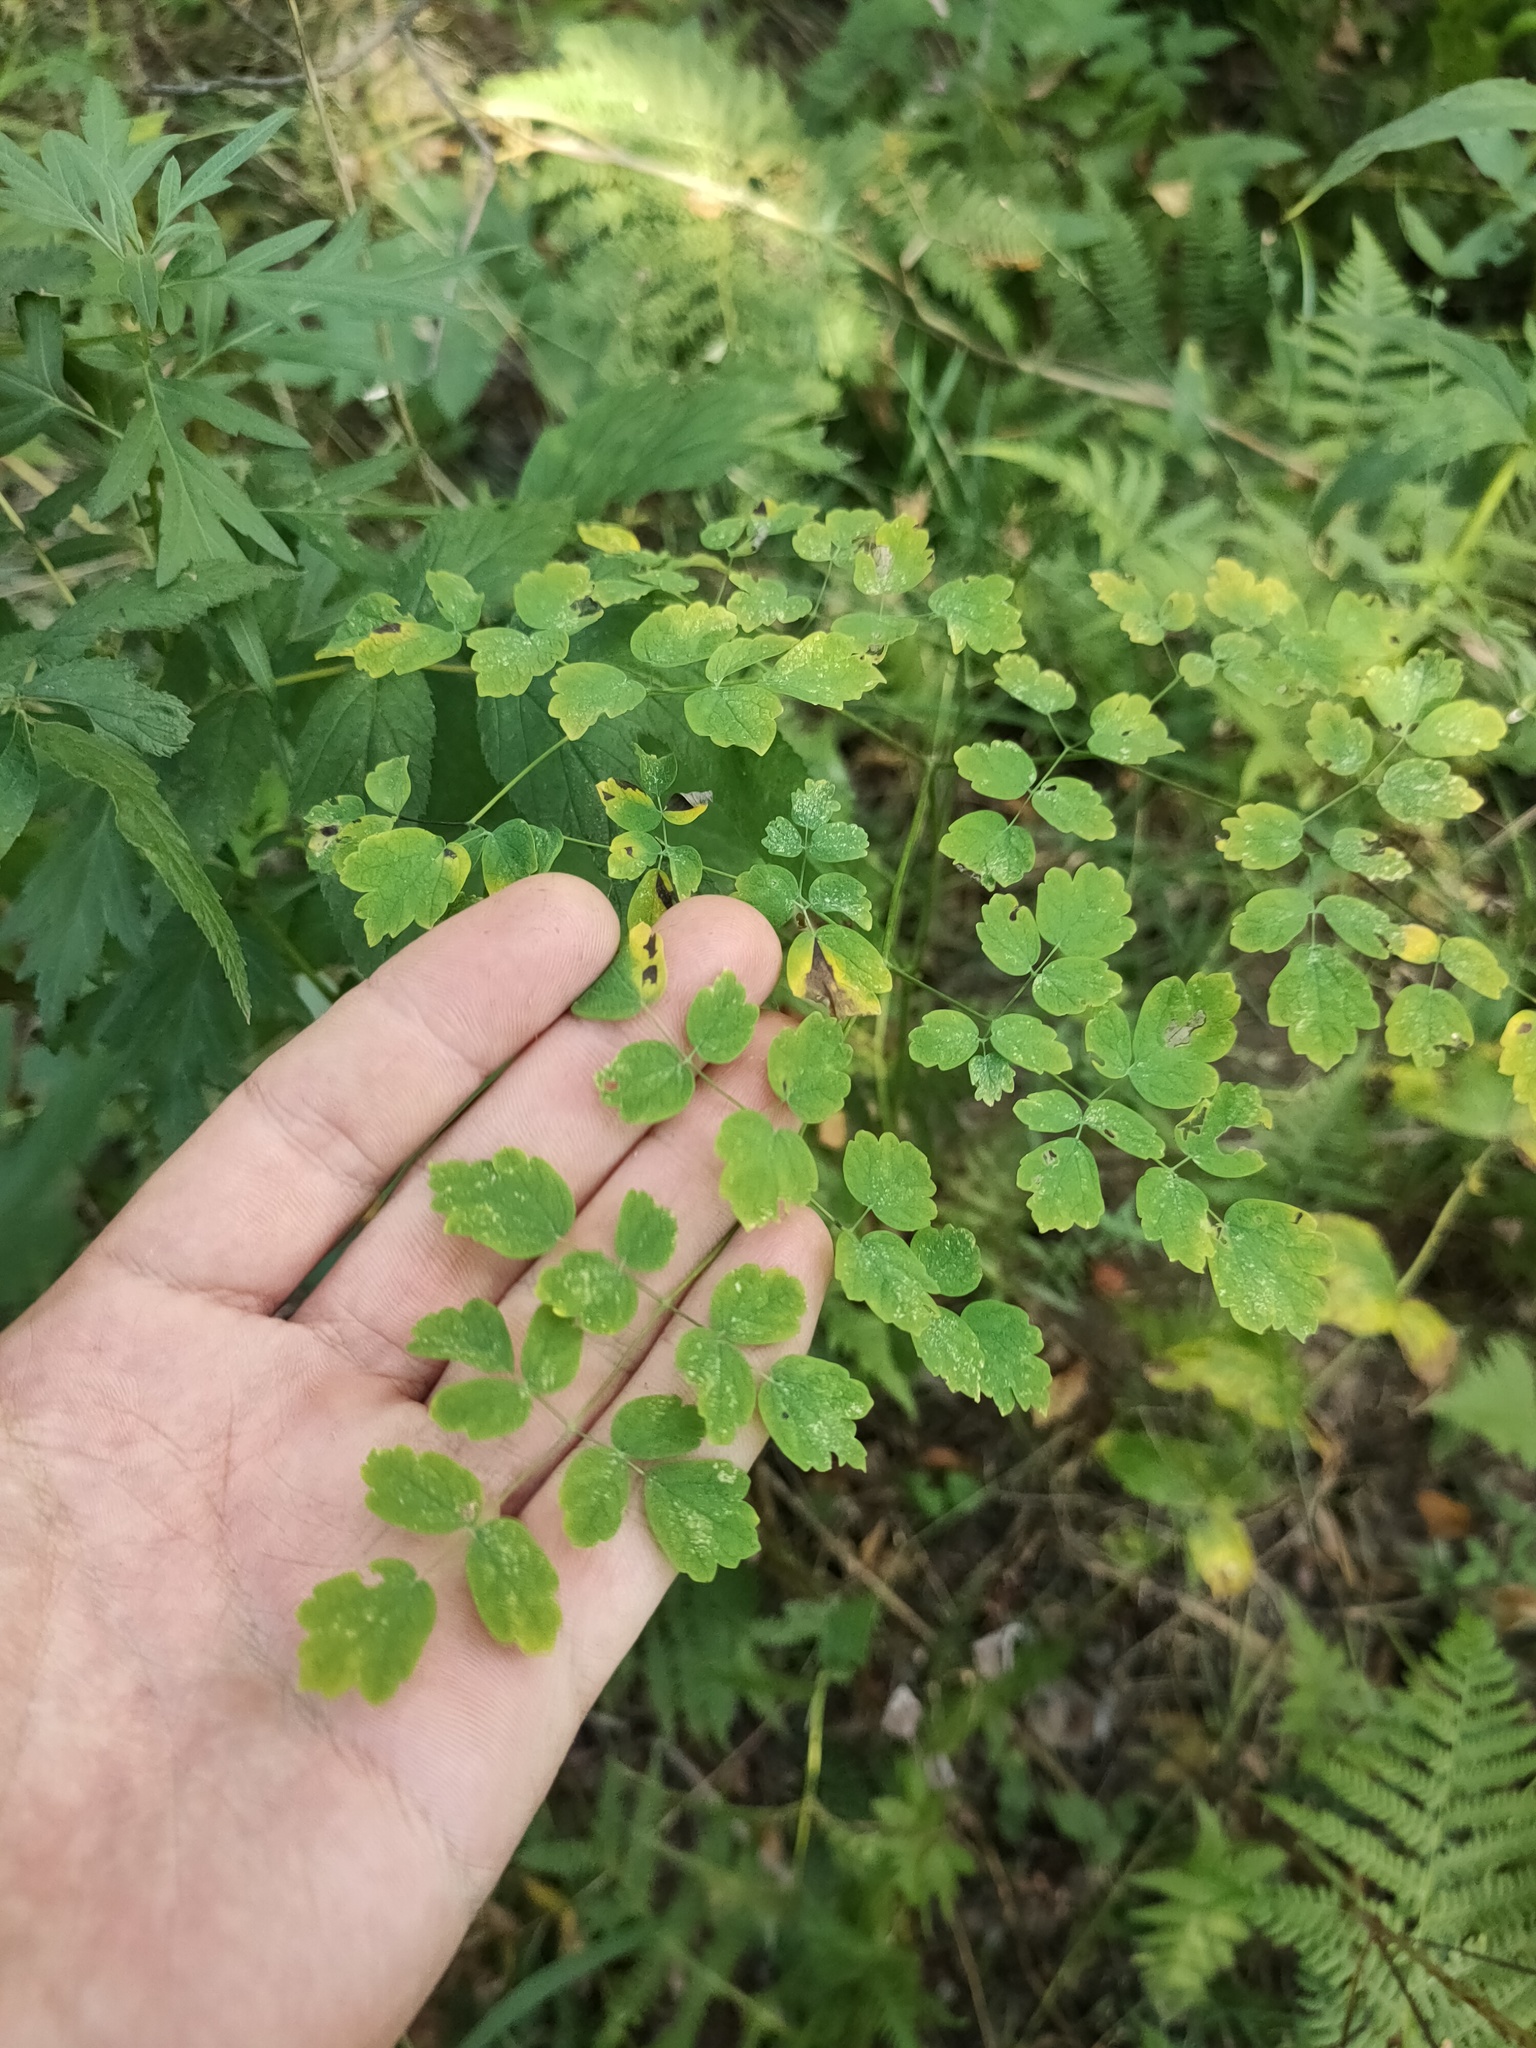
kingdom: Plantae
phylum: Tracheophyta
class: Magnoliopsida
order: Ranunculales
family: Ranunculaceae
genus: Thalictrum
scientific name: Thalictrum minus
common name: Lesser meadow-rue
